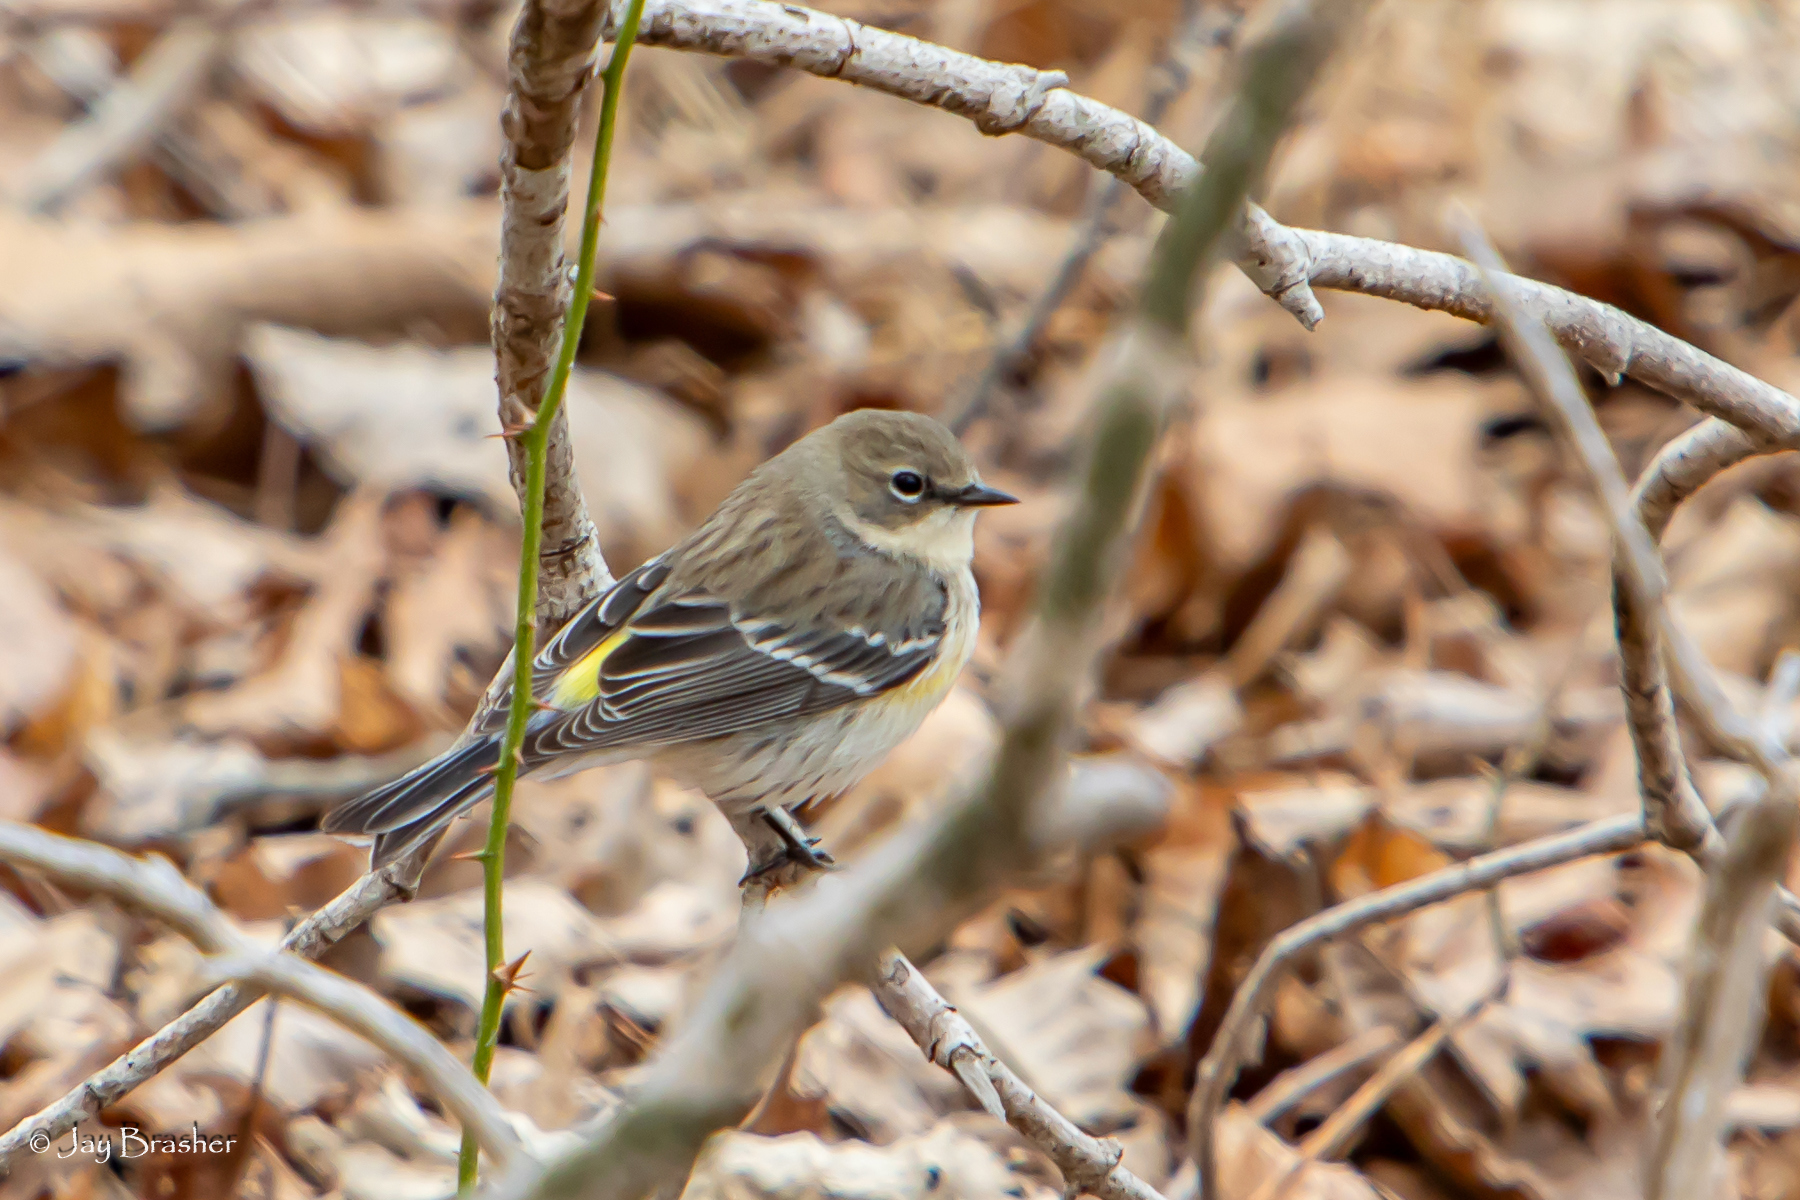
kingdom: Animalia
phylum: Chordata
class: Aves
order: Passeriformes
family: Parulidae
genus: Setophaga
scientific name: Setophaga coronata
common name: Myrtle warbler
